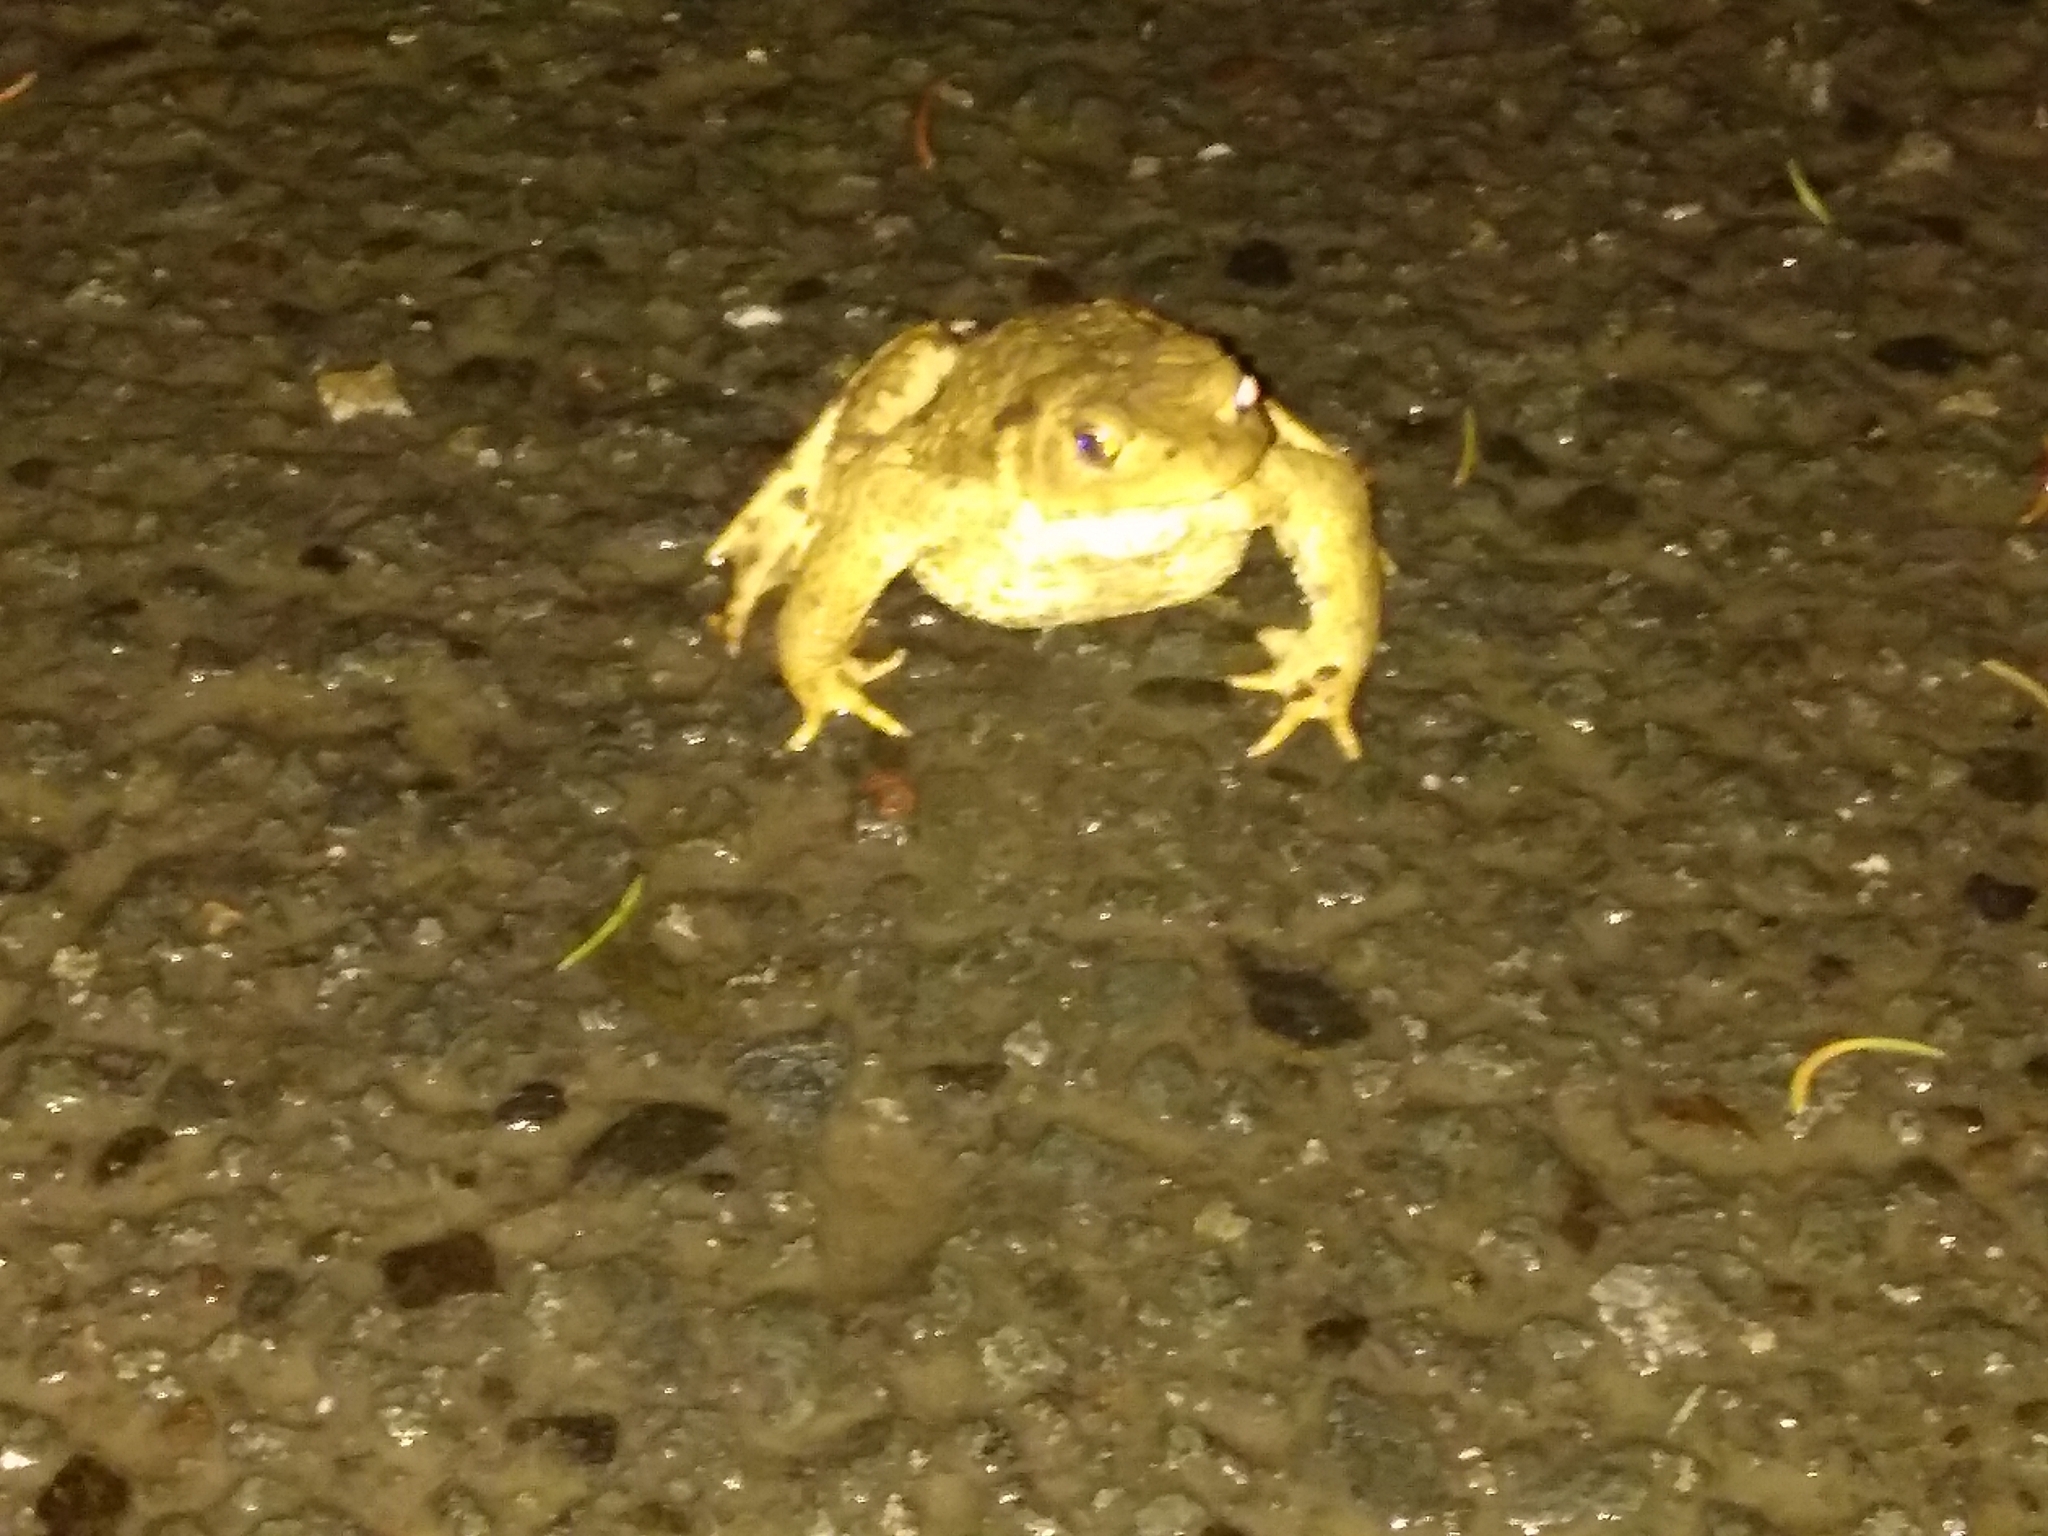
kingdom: Animalia
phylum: Chordata
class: Amphibia
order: Anura
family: Bufonidae
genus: Bufo
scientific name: Bufo bufo
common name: Common toad
